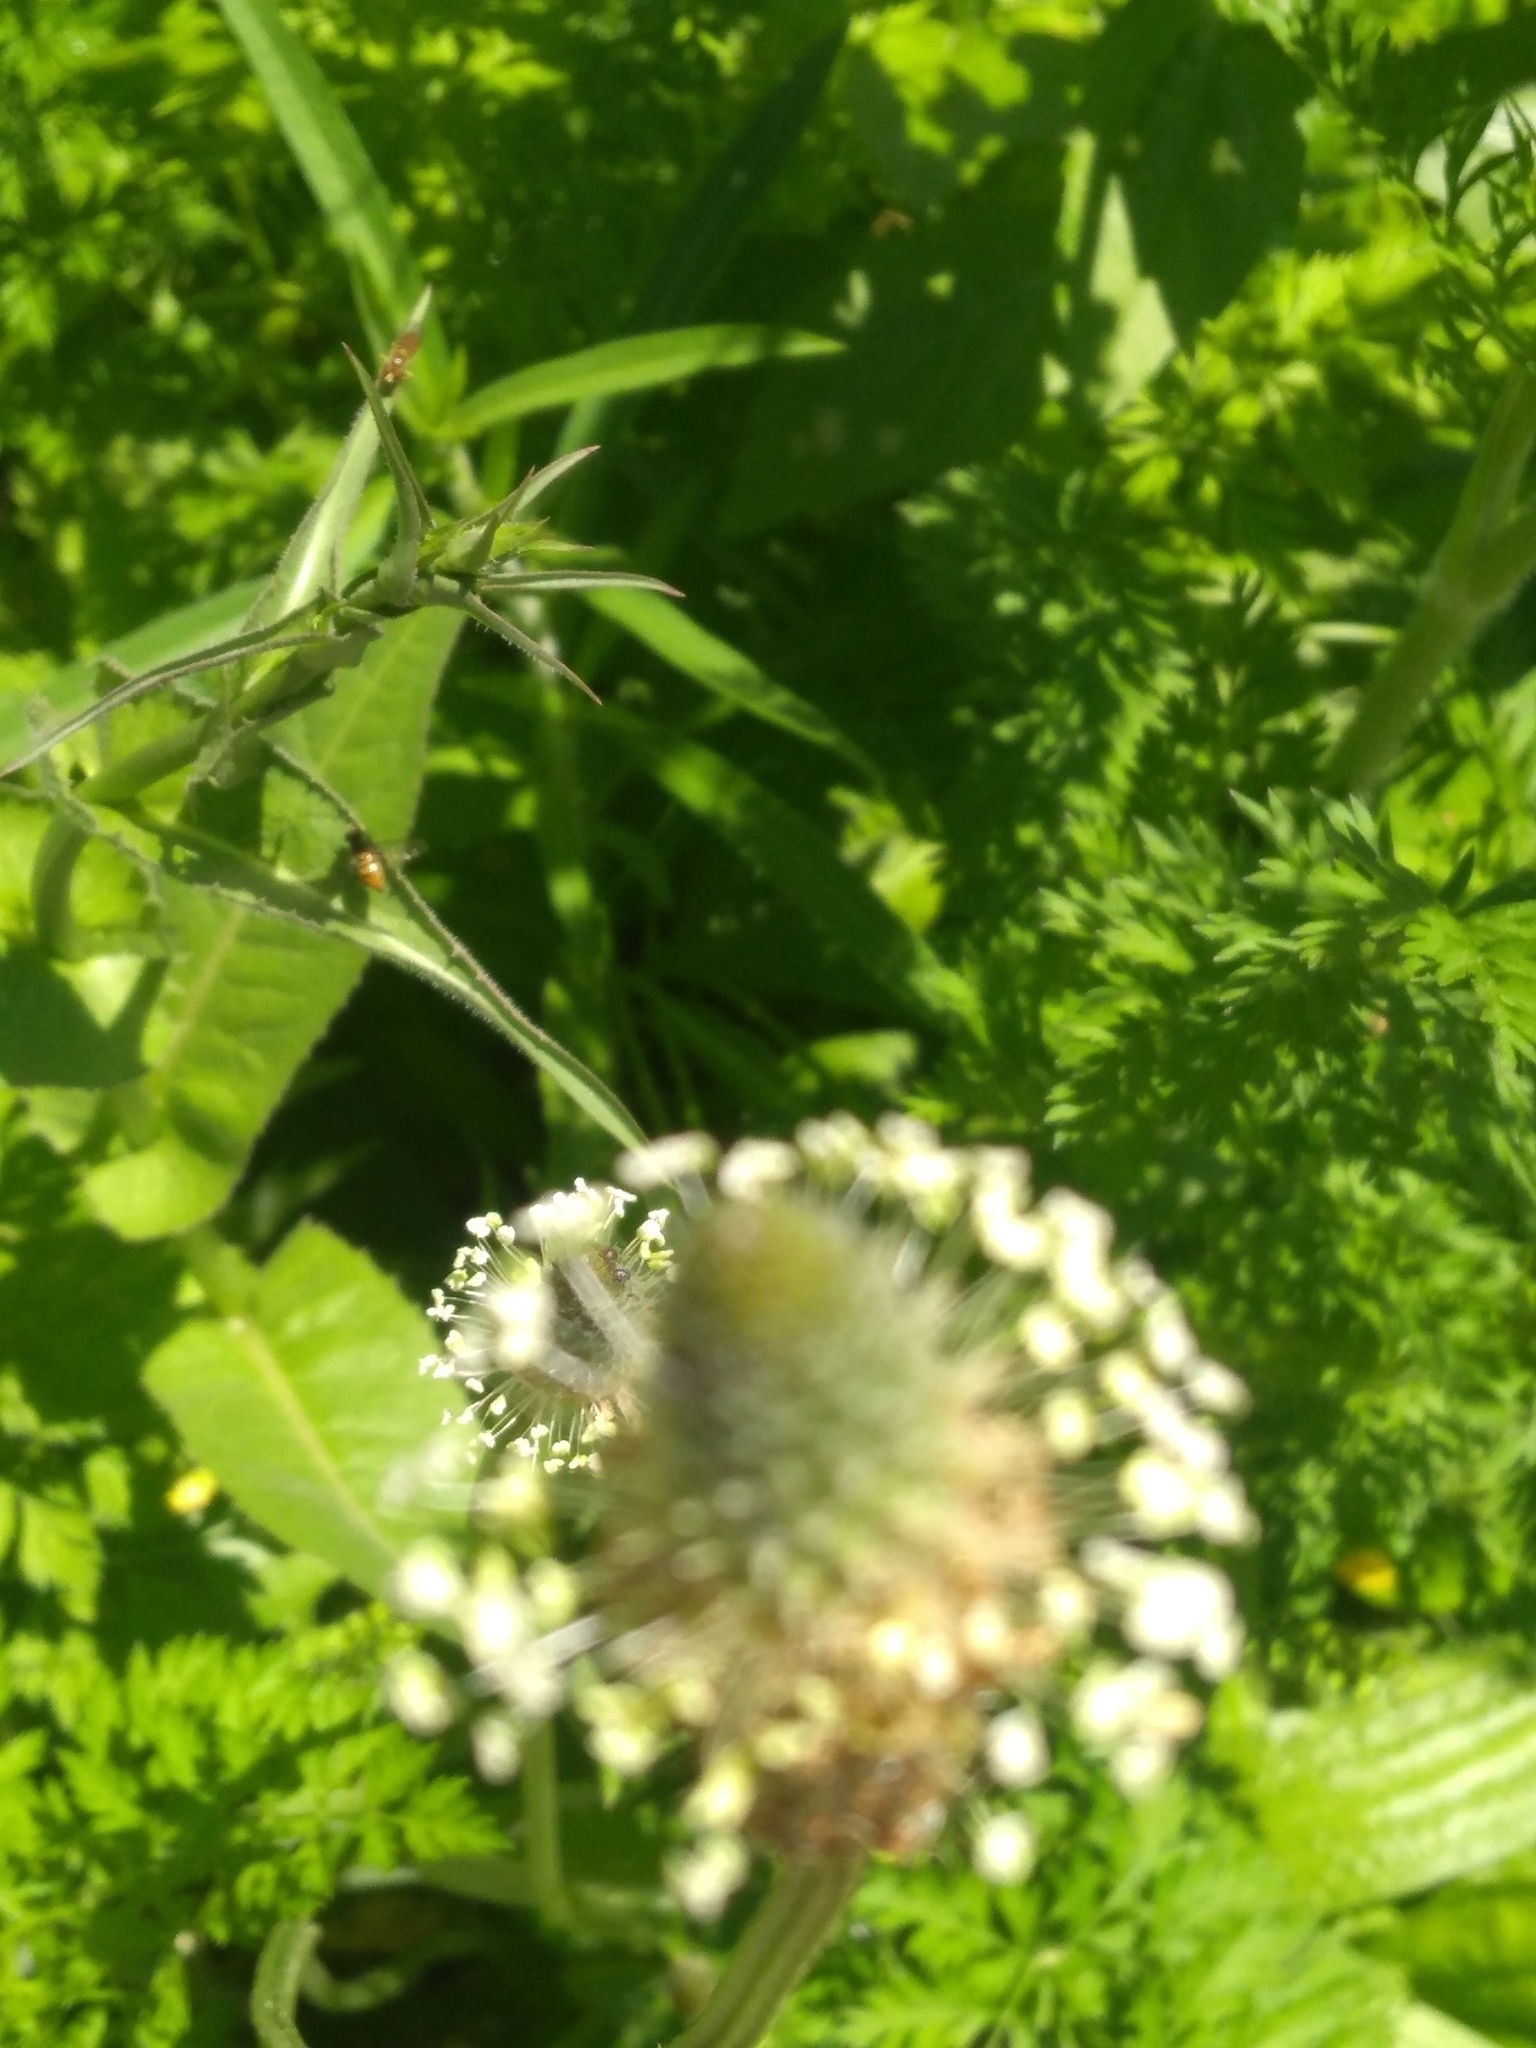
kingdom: Plantae
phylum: Tracheophyta
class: Magnoliopsida
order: Lamiales
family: Plantaginaceae
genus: Plantago
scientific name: Plantago lanceolata
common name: Ribwort plantain
